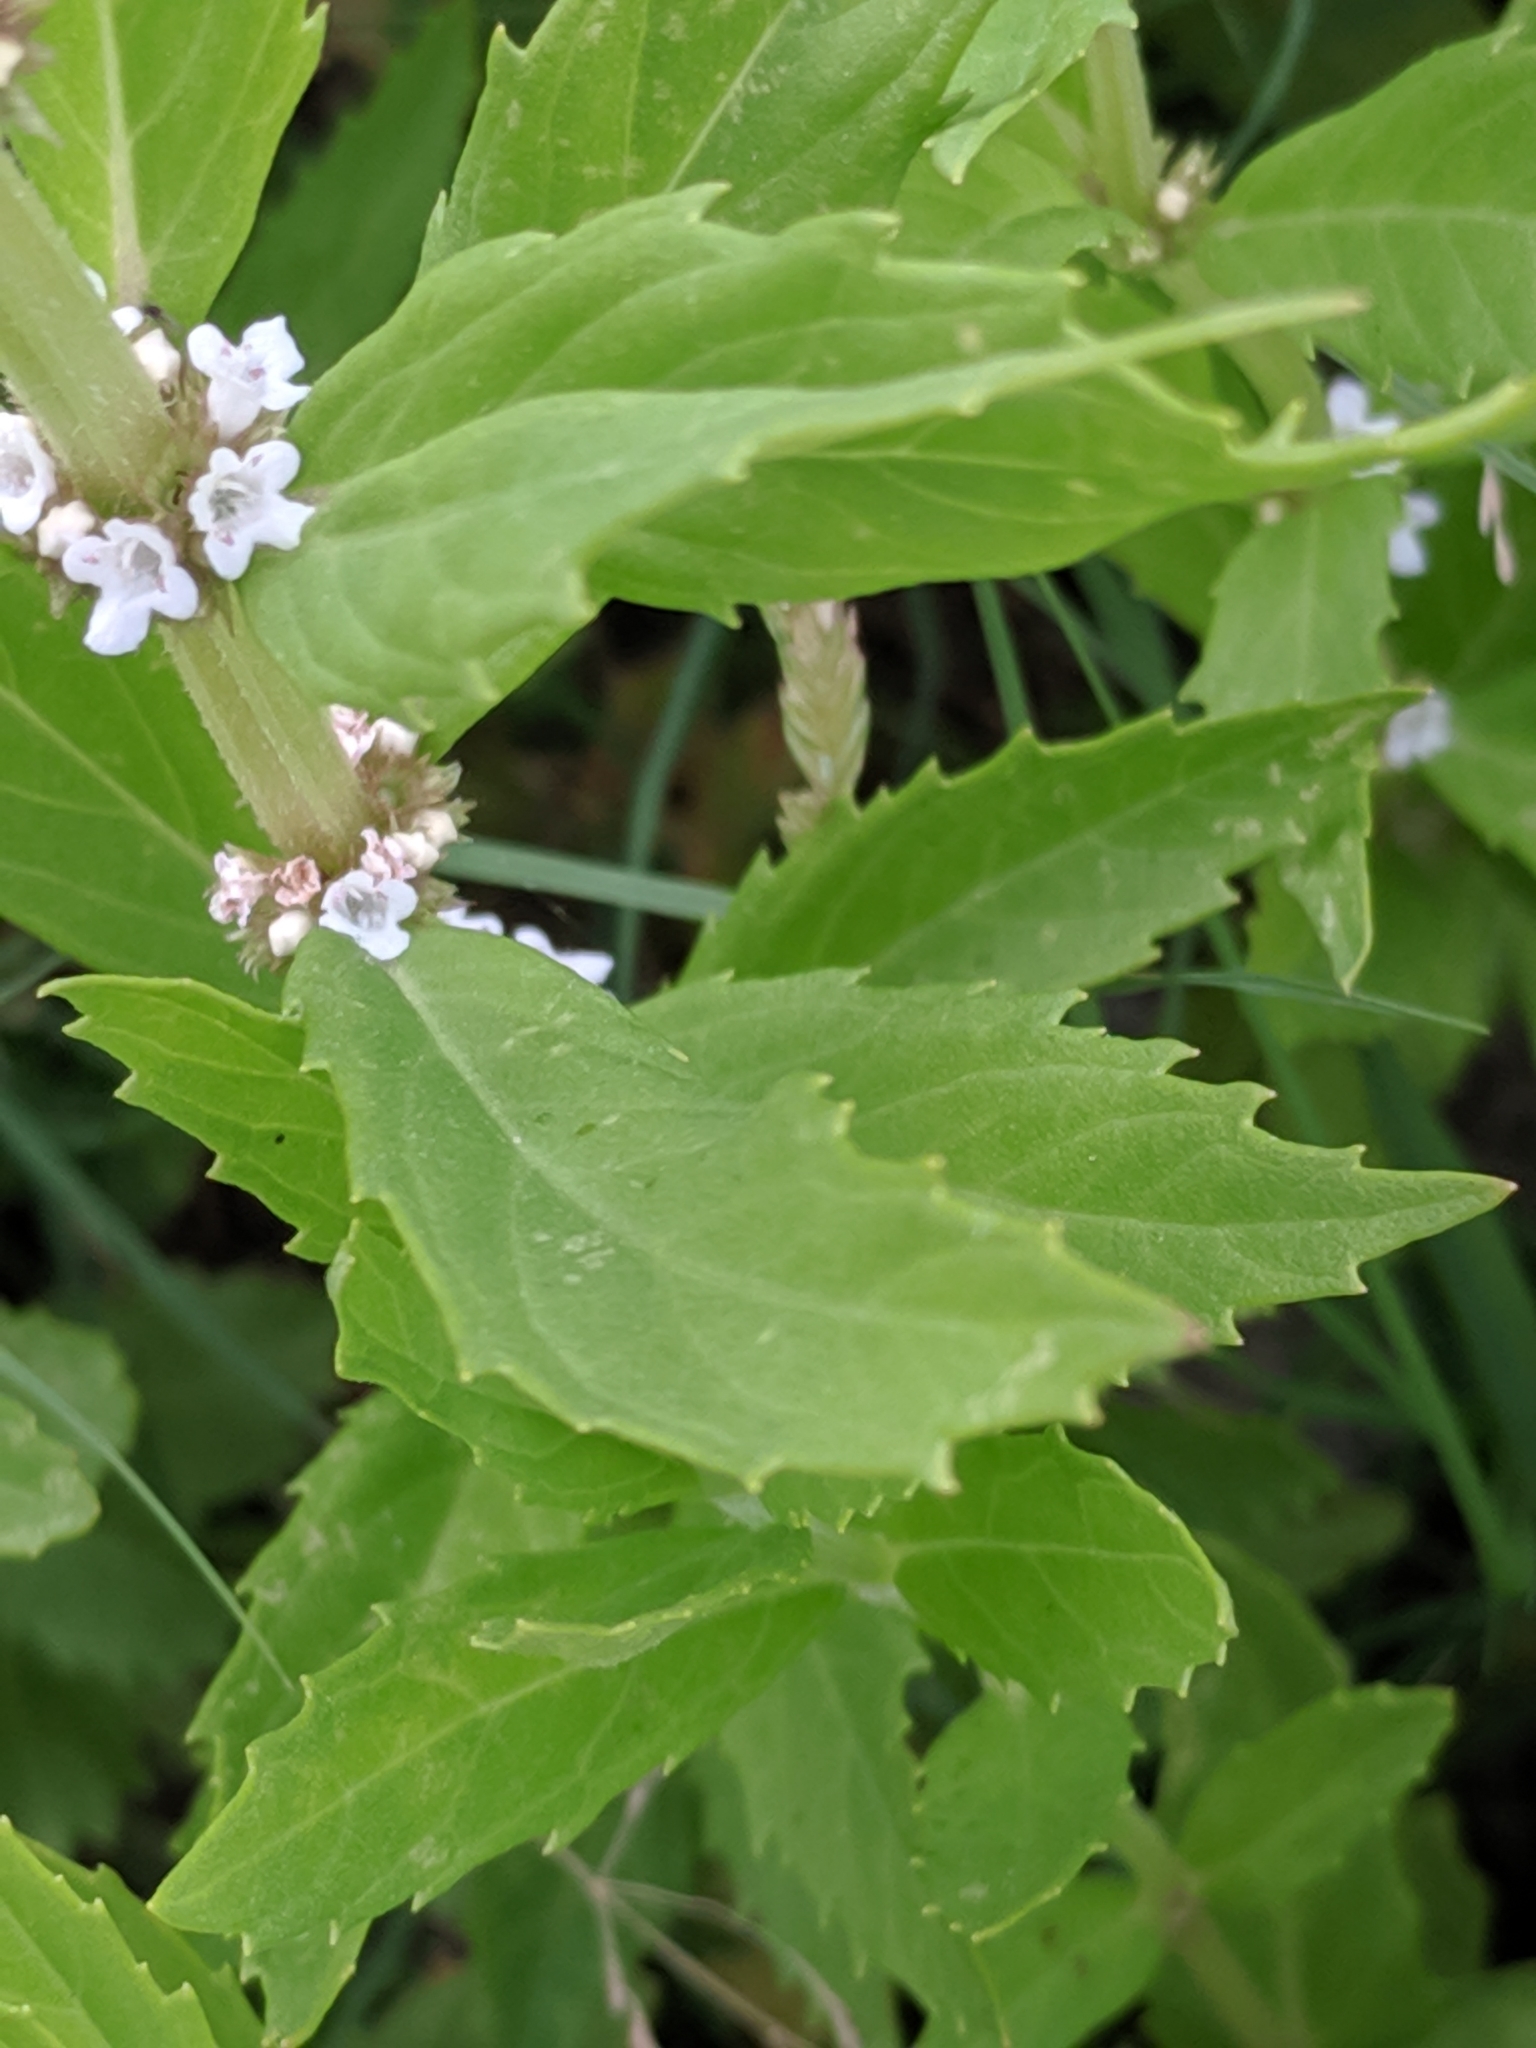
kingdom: Plantae
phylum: Tracheophyta
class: Magnoliopsida
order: Lamiales
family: Lamiaceae
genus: Lycopus
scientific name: Lycopus asper
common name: Rough water-horehound
